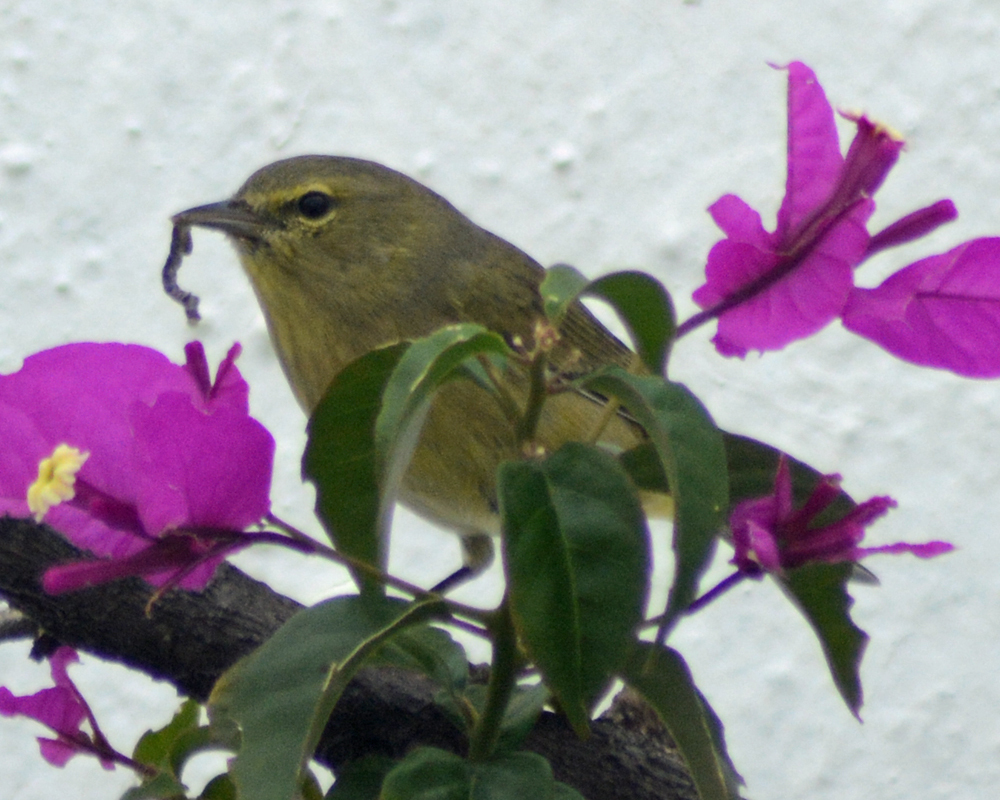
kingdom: Animalia
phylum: Chordata
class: Aves
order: Passeriformes
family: Parulidae
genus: Leiothlypis
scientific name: Leiothlypis celata
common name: Orange-crowned warbler
